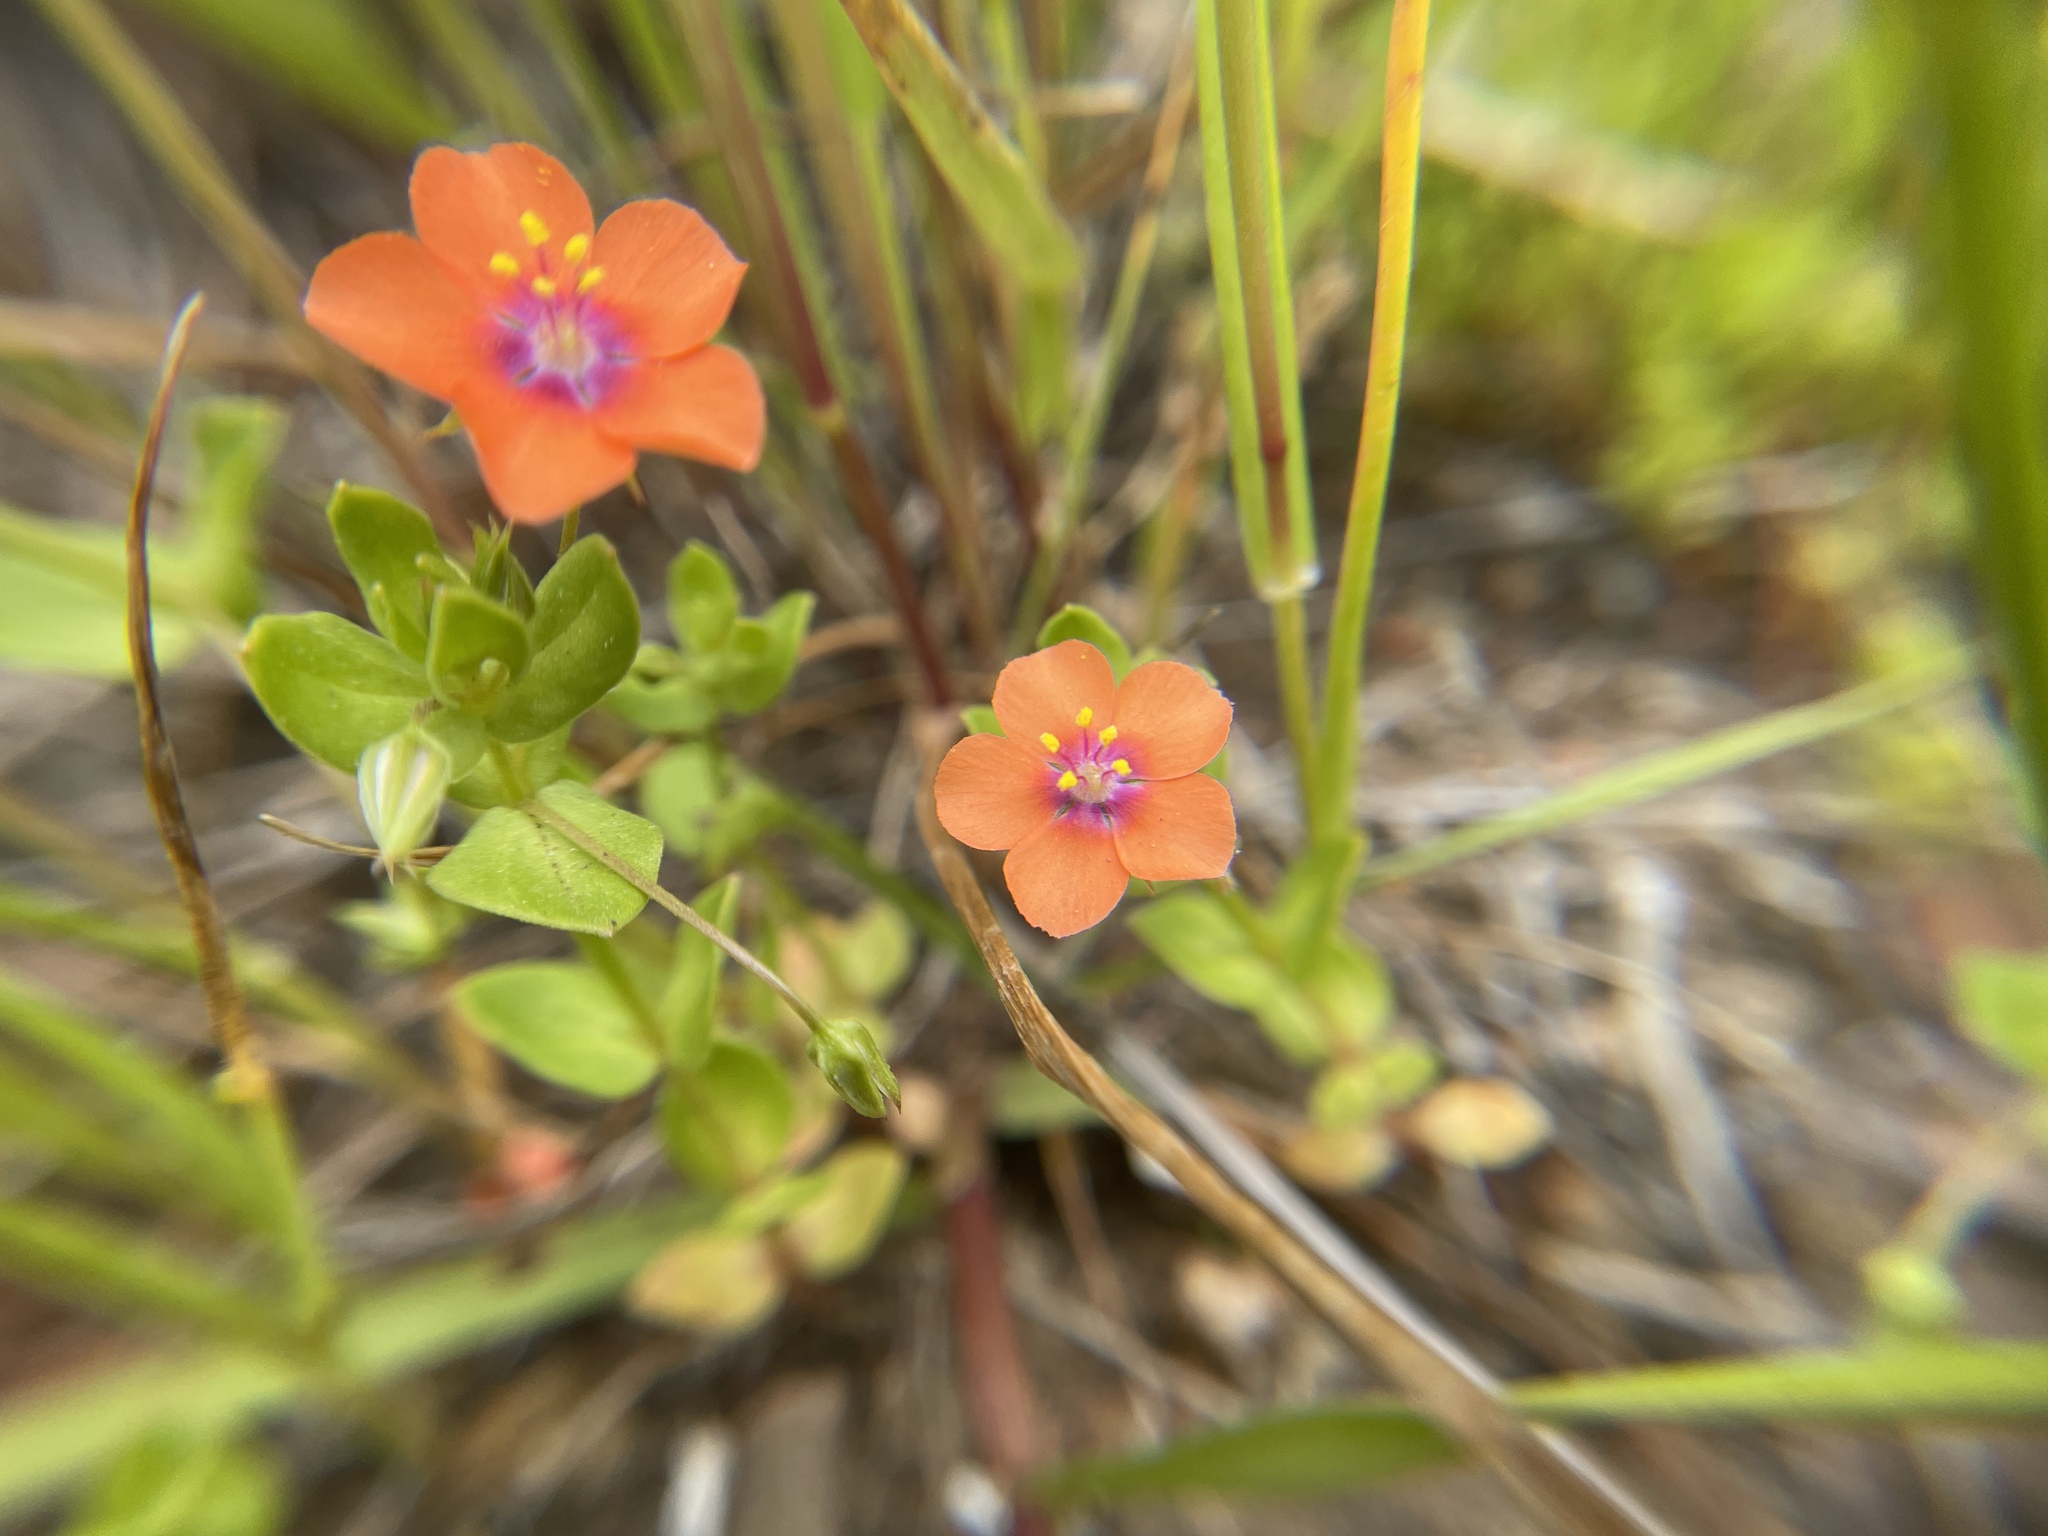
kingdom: Plantae
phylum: Tracheophyta
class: Magnoliopsida
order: Ericales
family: Primulaceae
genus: Lysimachia
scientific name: Lysimachia arvensis
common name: Scarlet pimpernel
